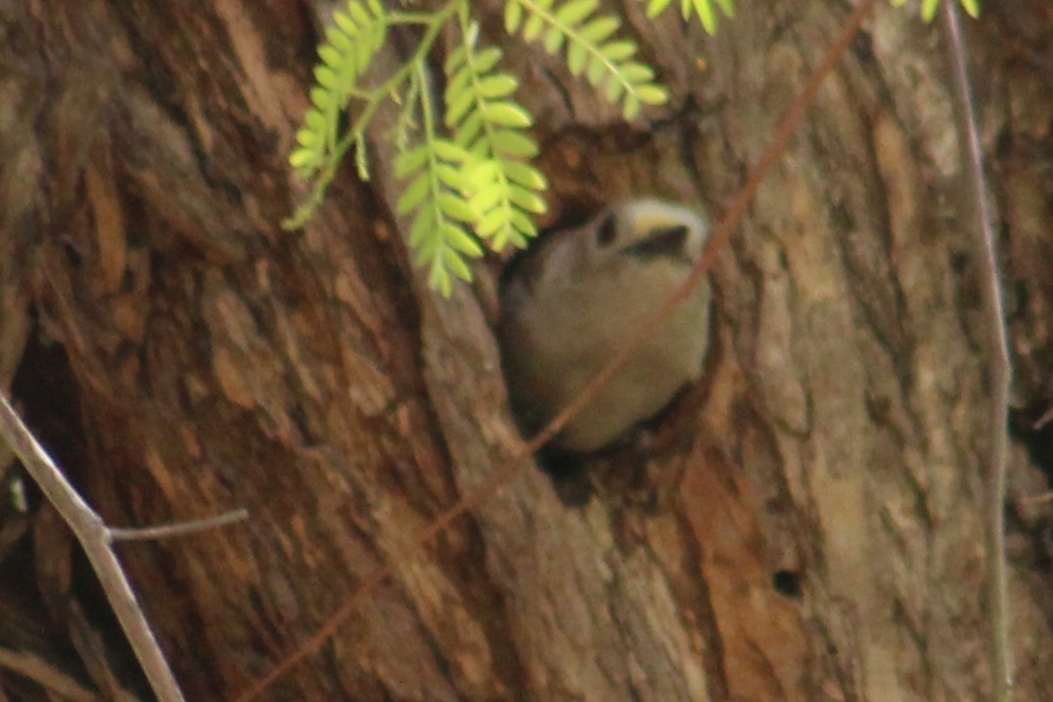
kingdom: Animalia
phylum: Chordata
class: Aves
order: Piciformes
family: Picidae
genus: Melanerpes
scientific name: Melanerpes aurifrons
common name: Golden-fronted woodpecker
